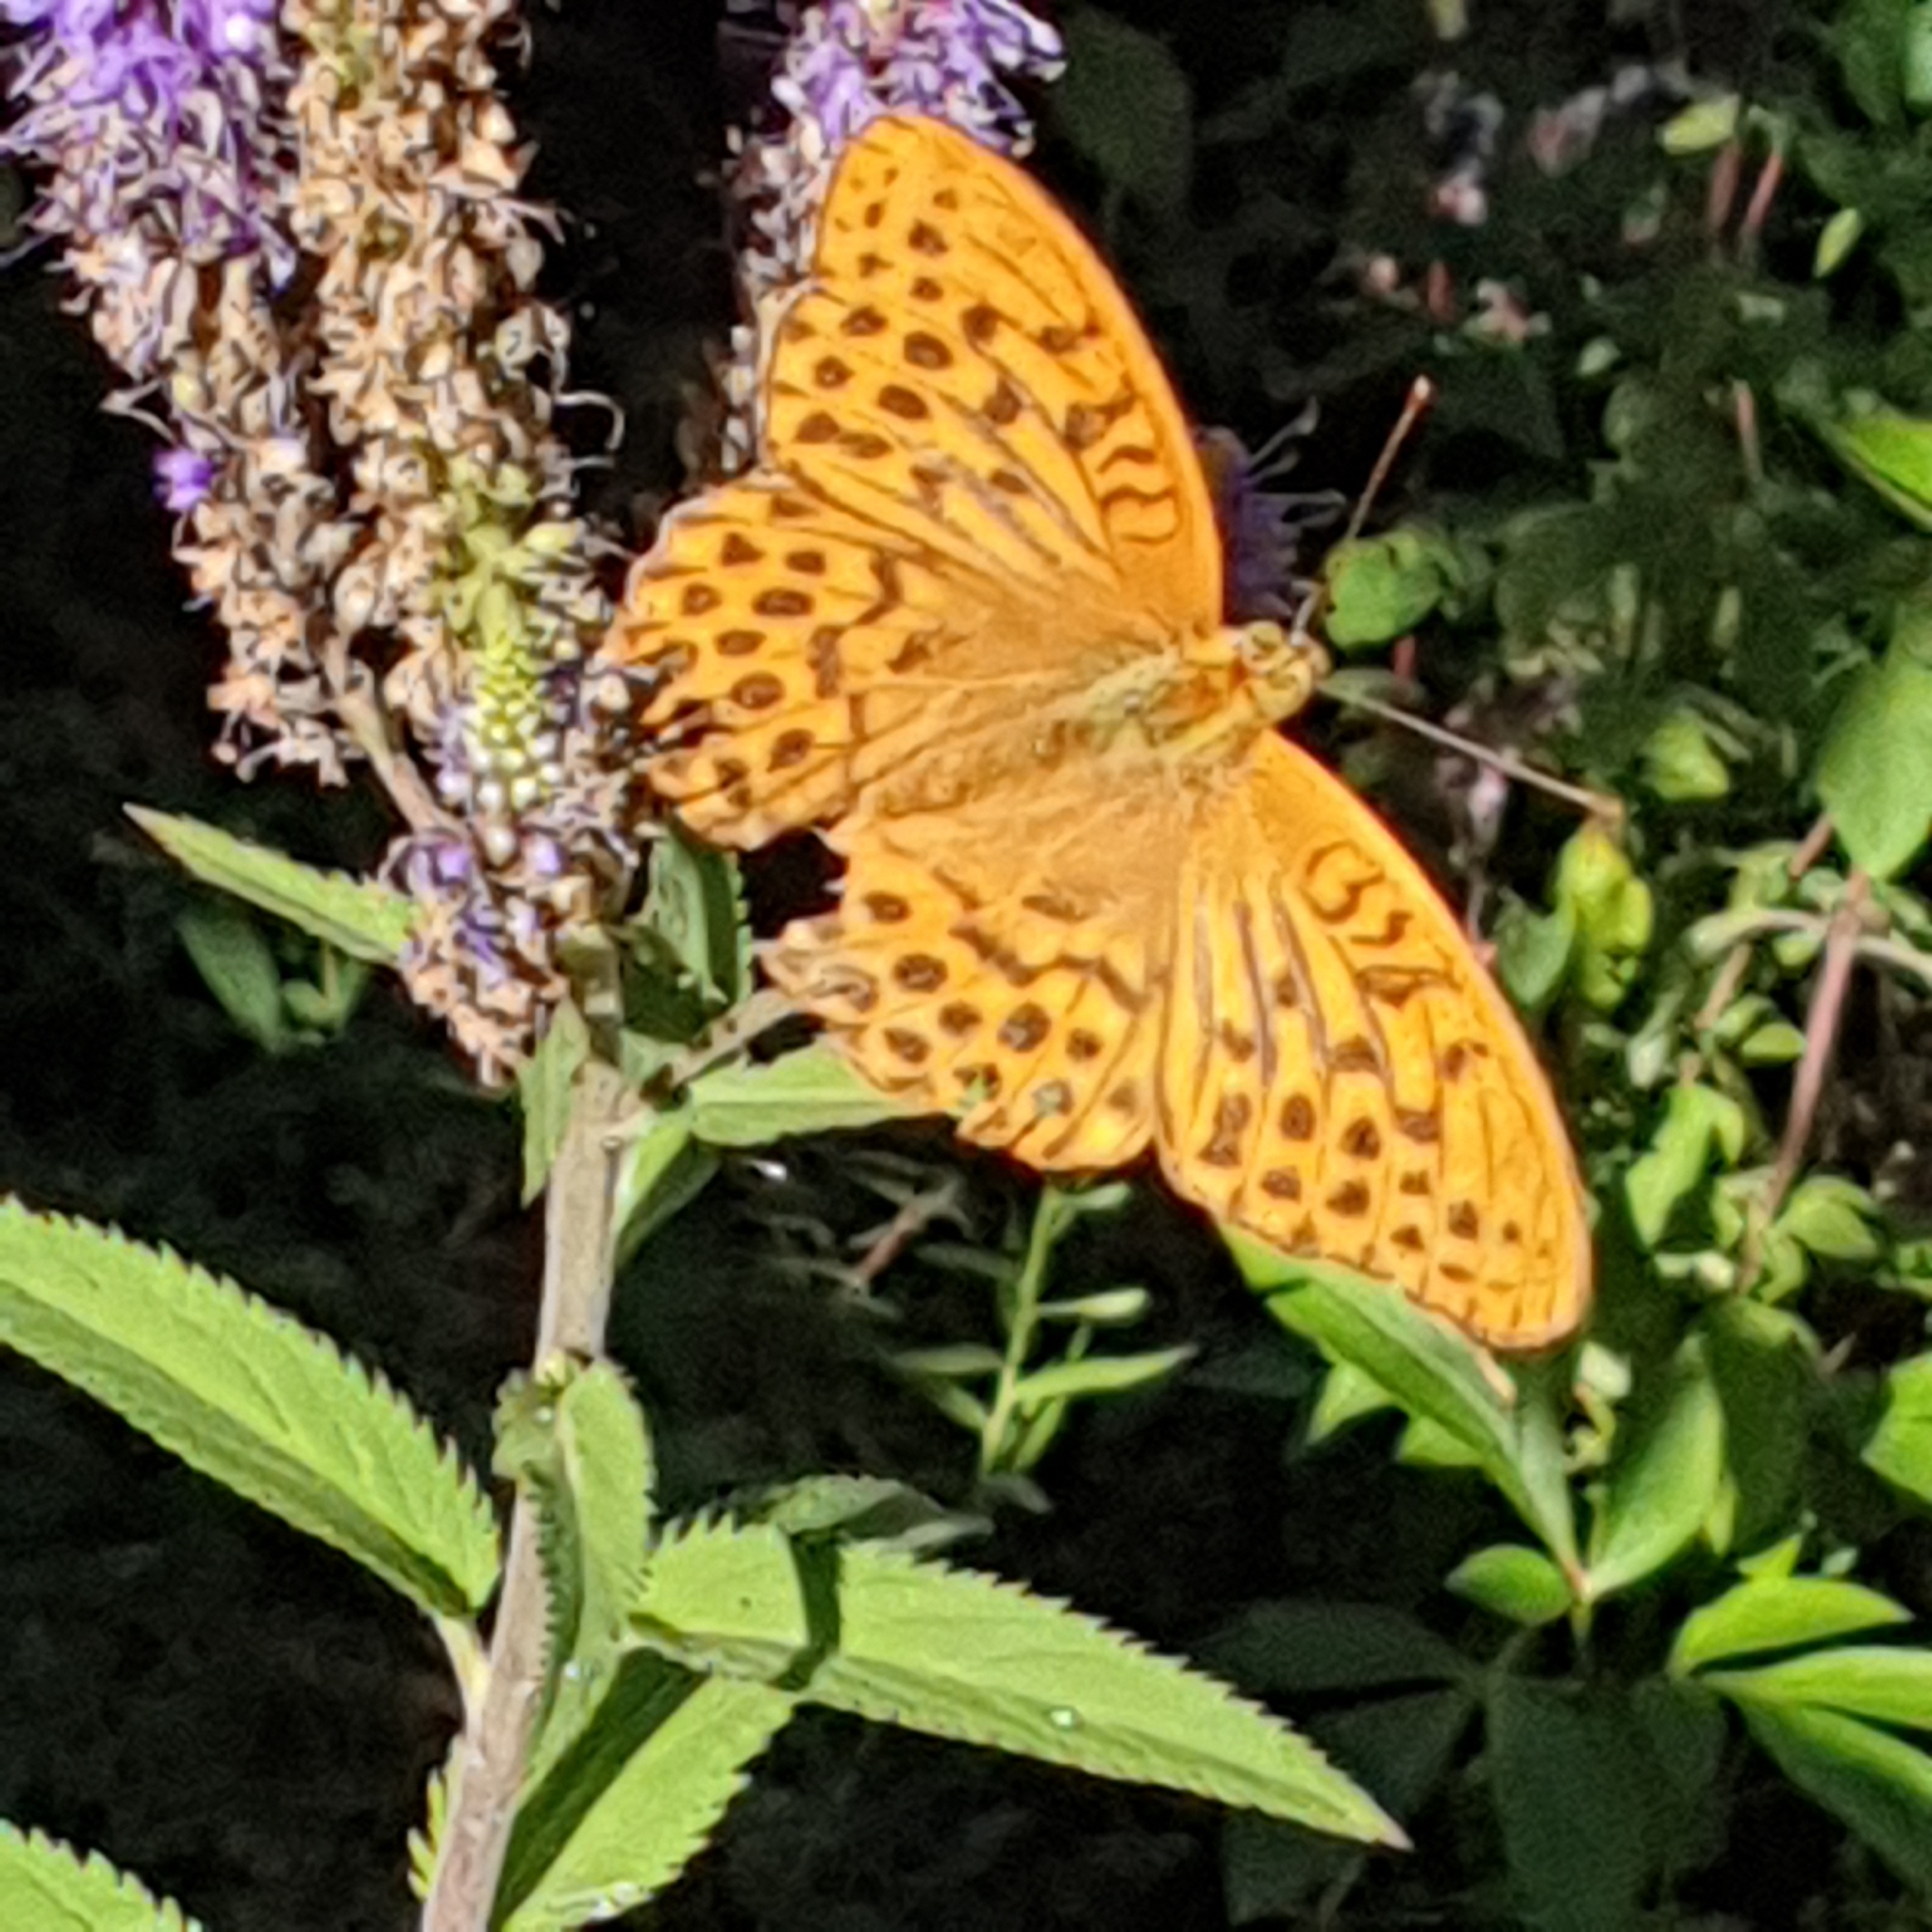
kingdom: Animalia
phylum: Arthropoda
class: Insecta
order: Lepidoptera
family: Nymphalidae
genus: Argynnis
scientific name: Argynnis paphia
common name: Silver-washed fritillary
